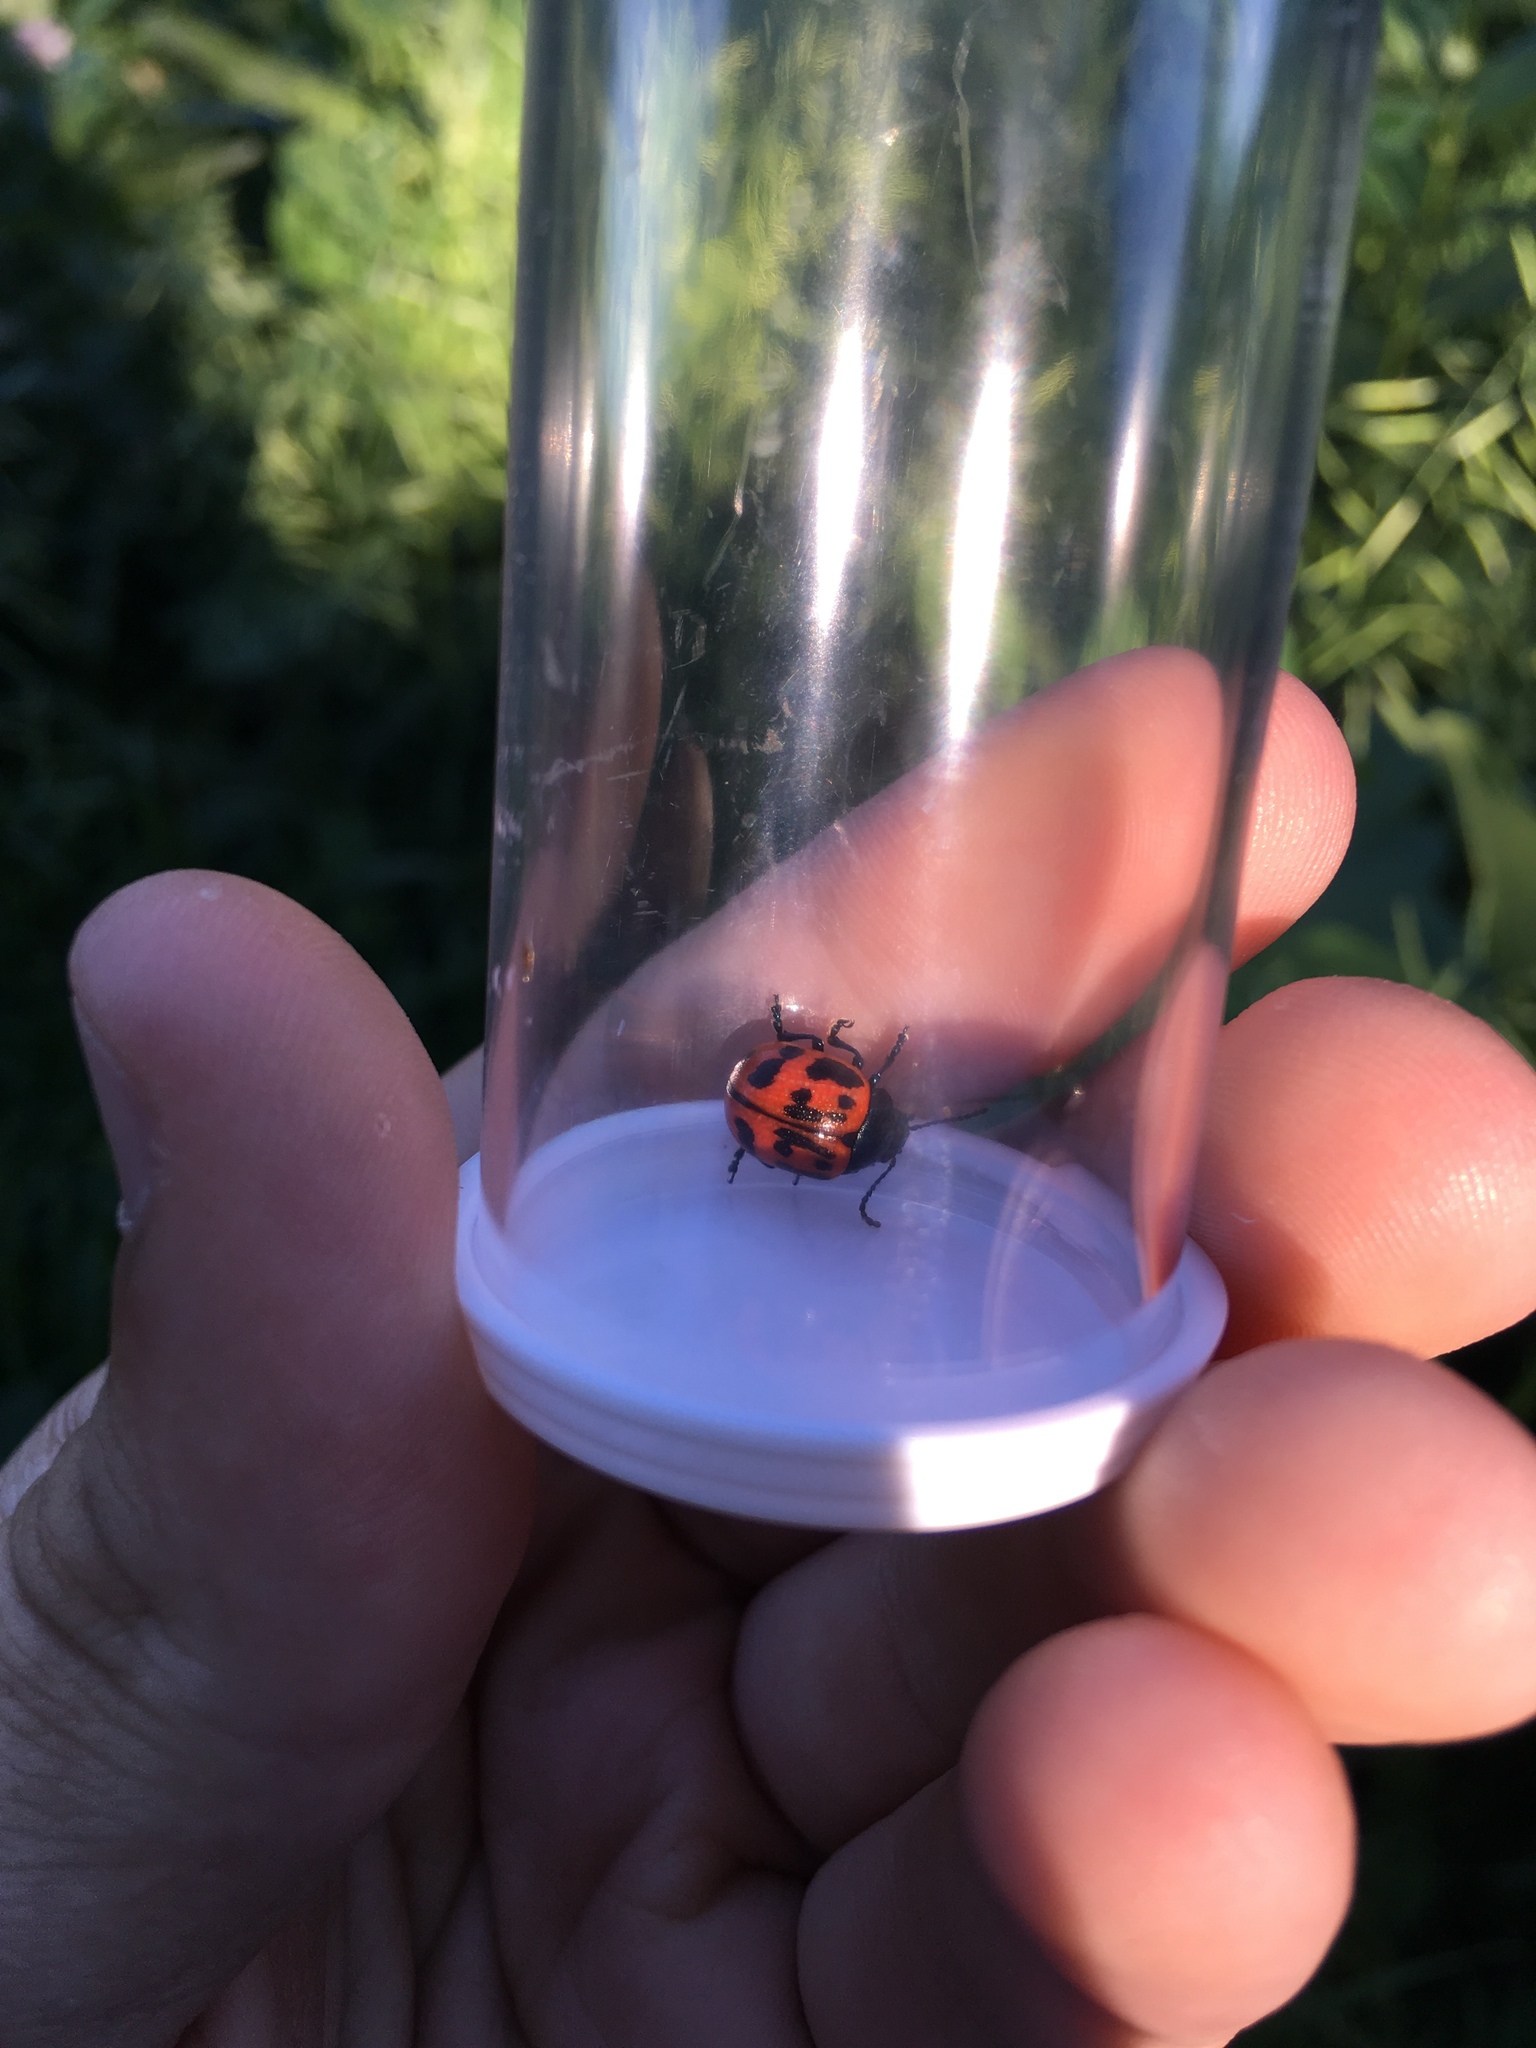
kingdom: Animalia
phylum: Arthropoda
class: Insecta
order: Coleoptera
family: Chrysomelidae
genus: Labidomera
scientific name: Labidomera clivicollis
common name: Swamp milkweed leaf beetle
